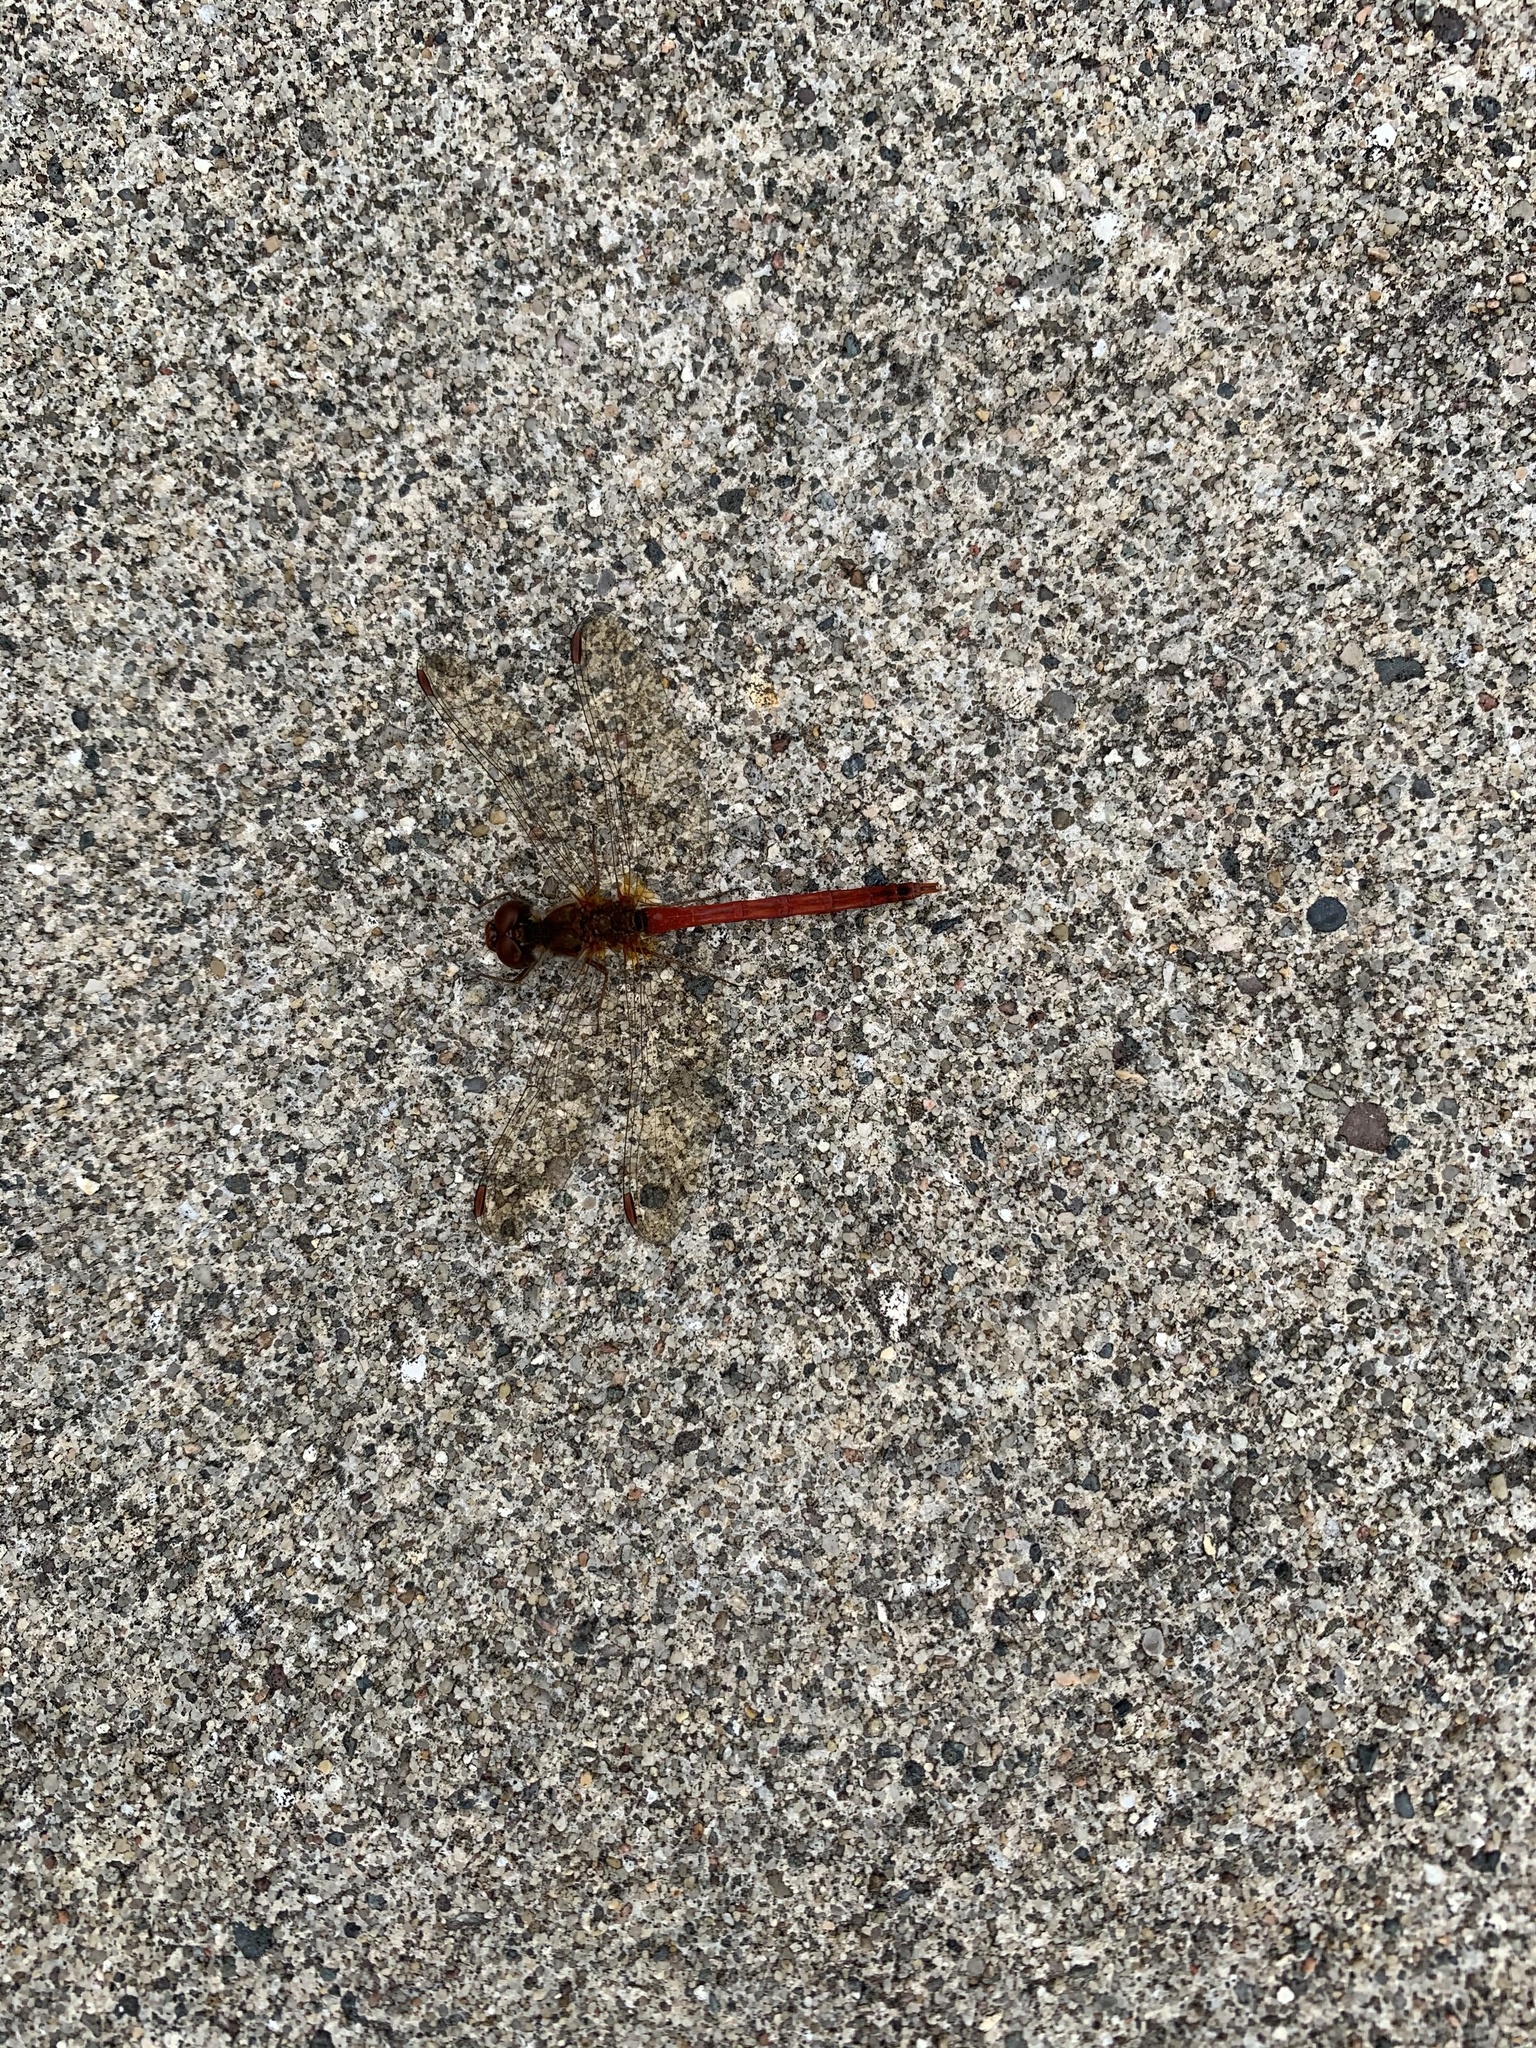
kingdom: Animalia
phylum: Arthropoda
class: Insecta
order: Odonata
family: Libellulidae
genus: Sympetrum
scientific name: Sympetrum vicinum
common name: Autumn meadowhawk
